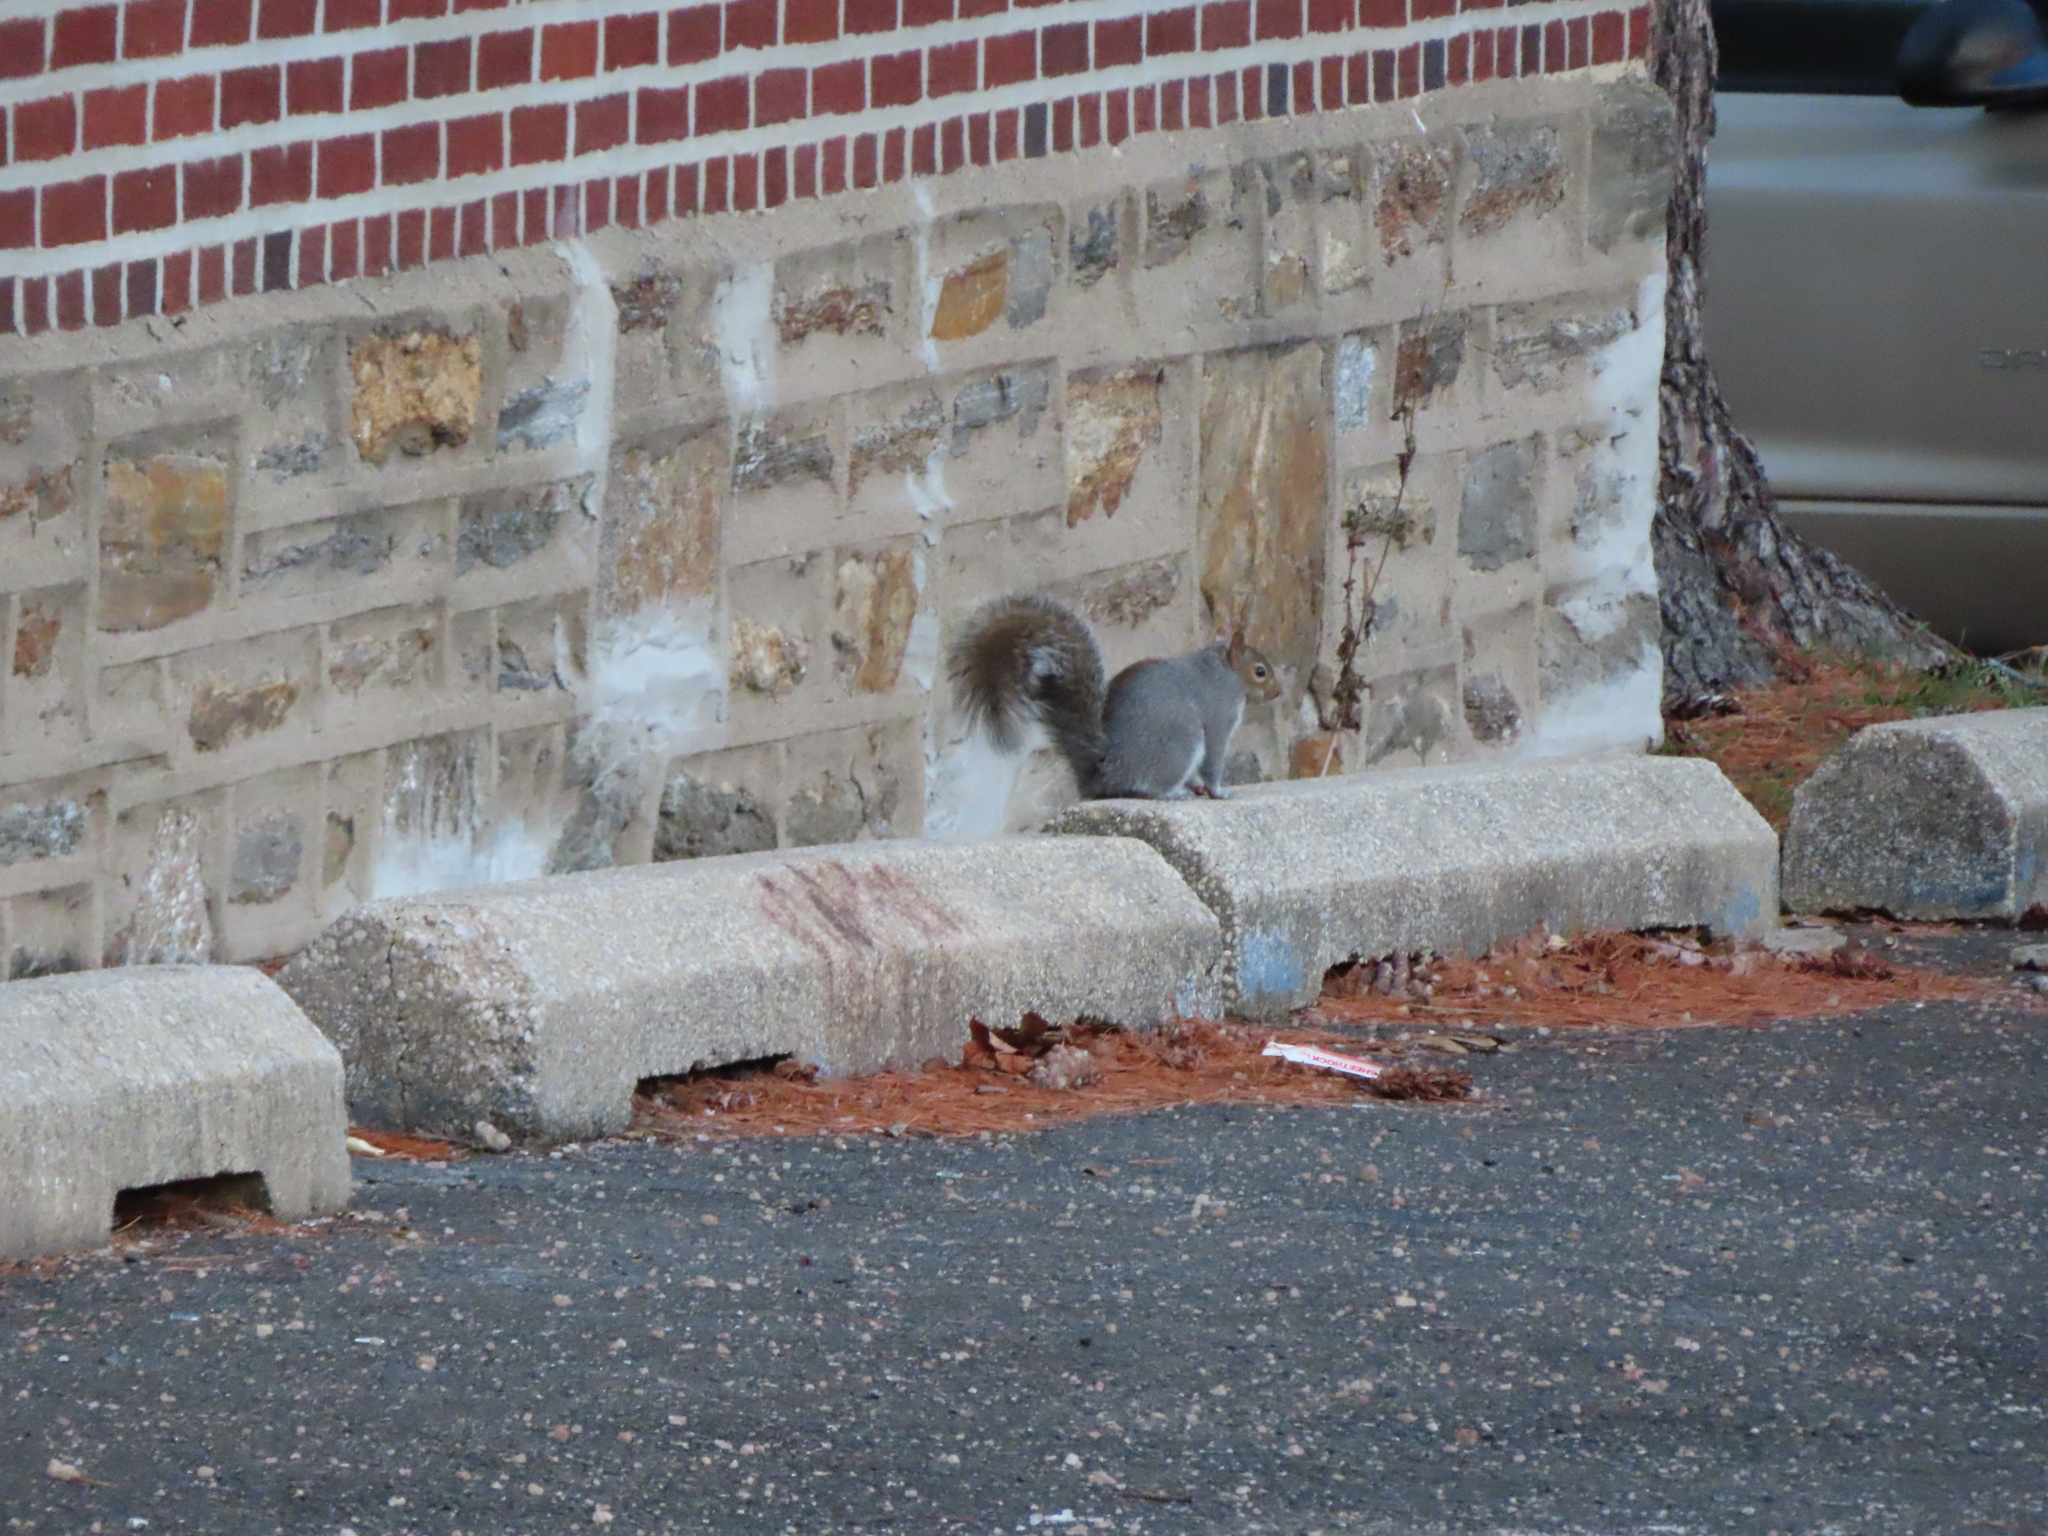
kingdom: Animalia
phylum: Chordata
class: Mammalia
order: Rodentia
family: Sciuridae
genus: Sciurus
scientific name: Sciurus carolinensis
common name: Eastern gray squirrel
